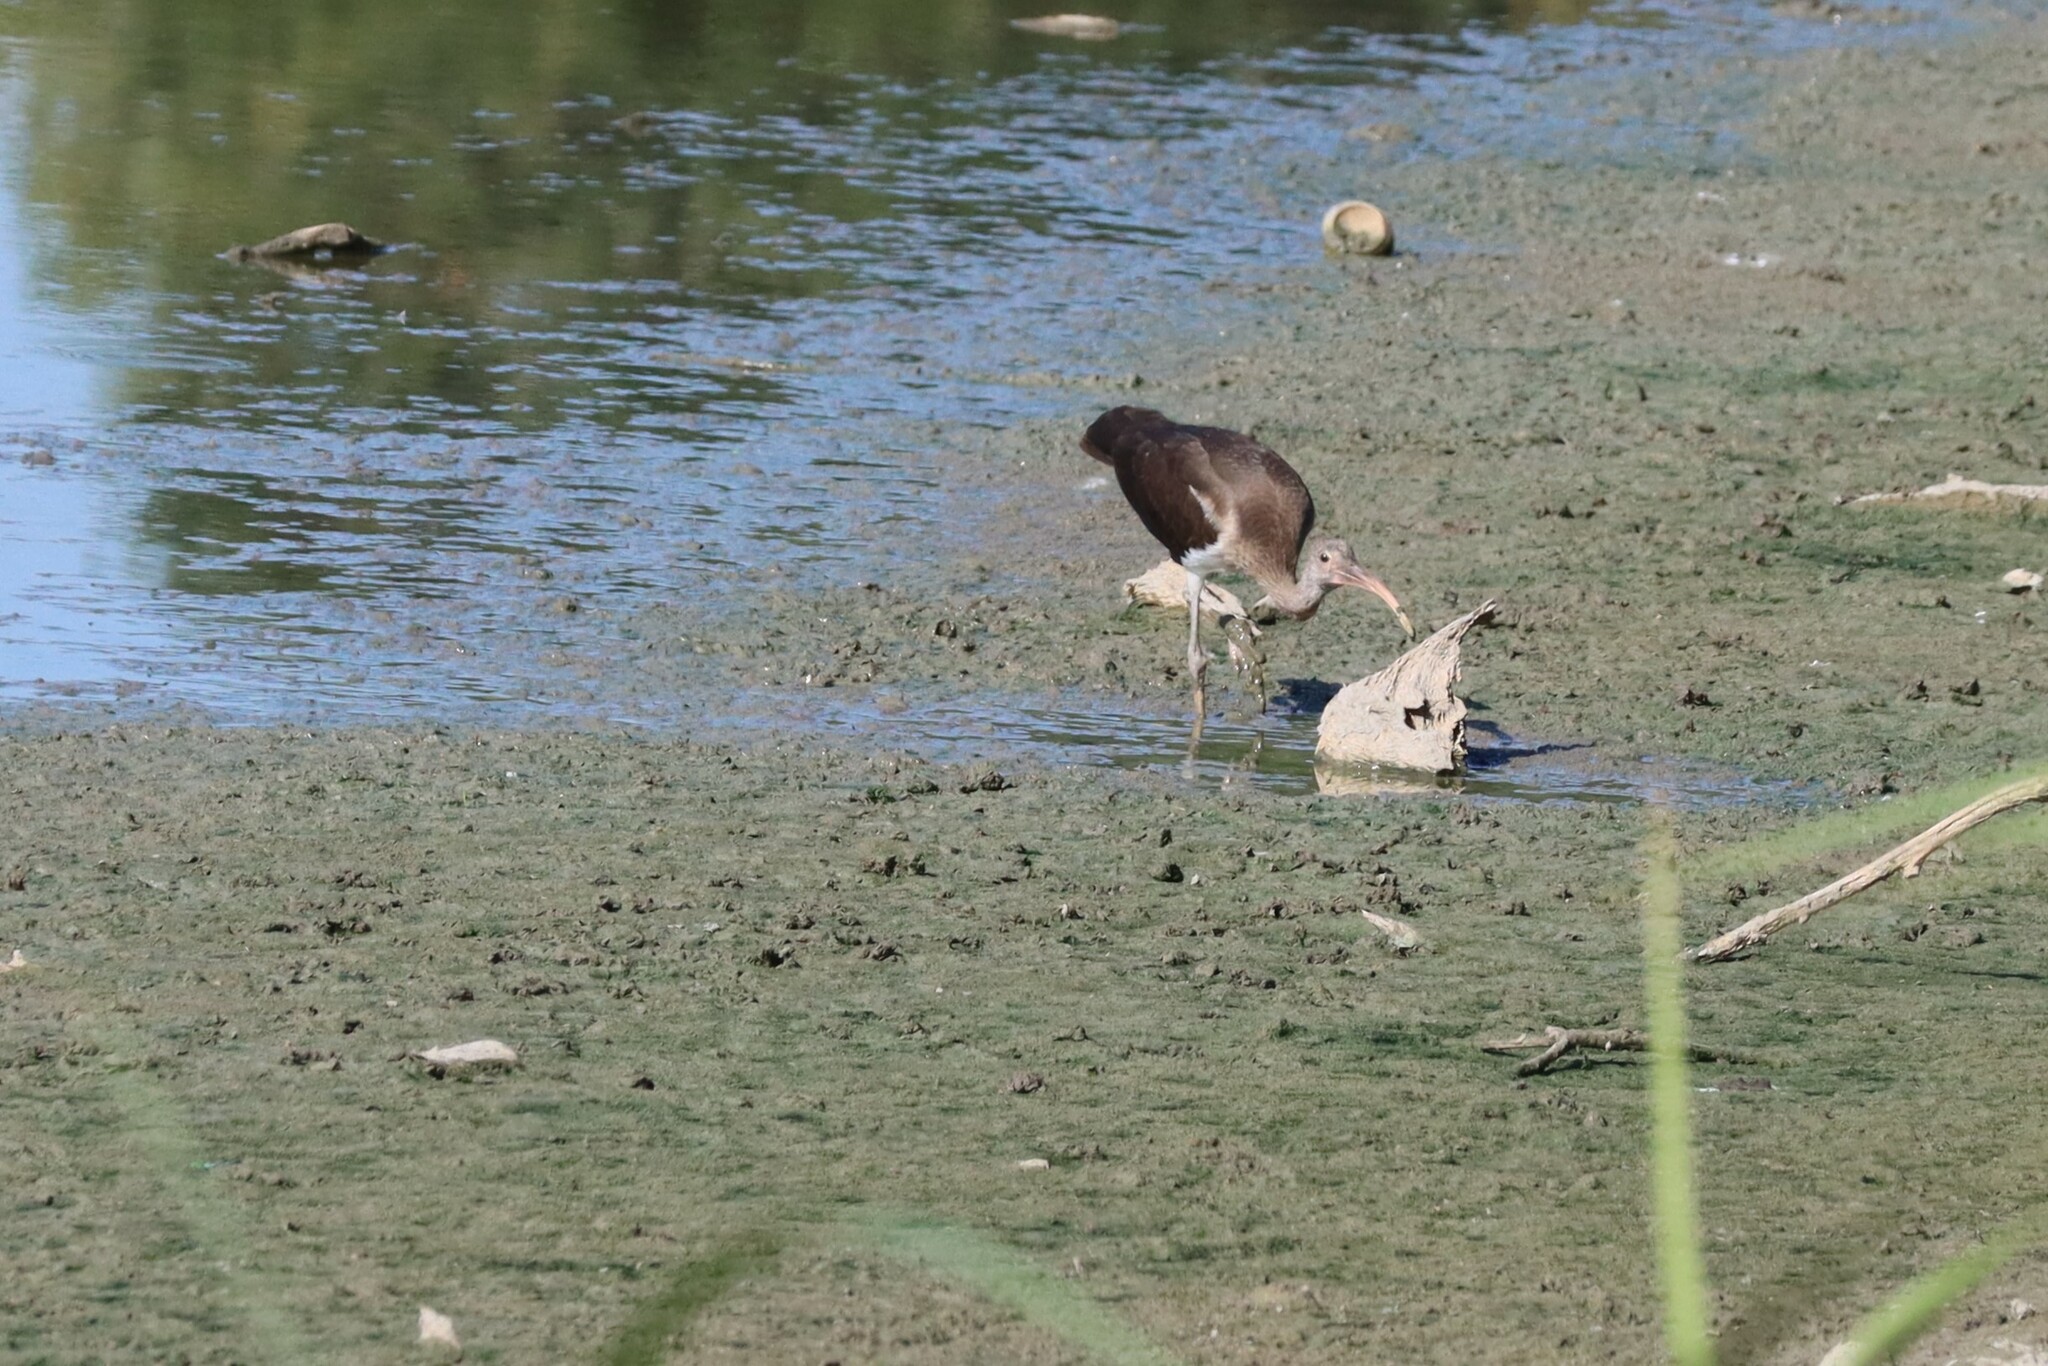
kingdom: Animalia
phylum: Chordata
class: Aves
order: Pelecaniformes
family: Threskiornithidae
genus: Eudocimus
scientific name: Eudocimus albus
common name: White ibis
